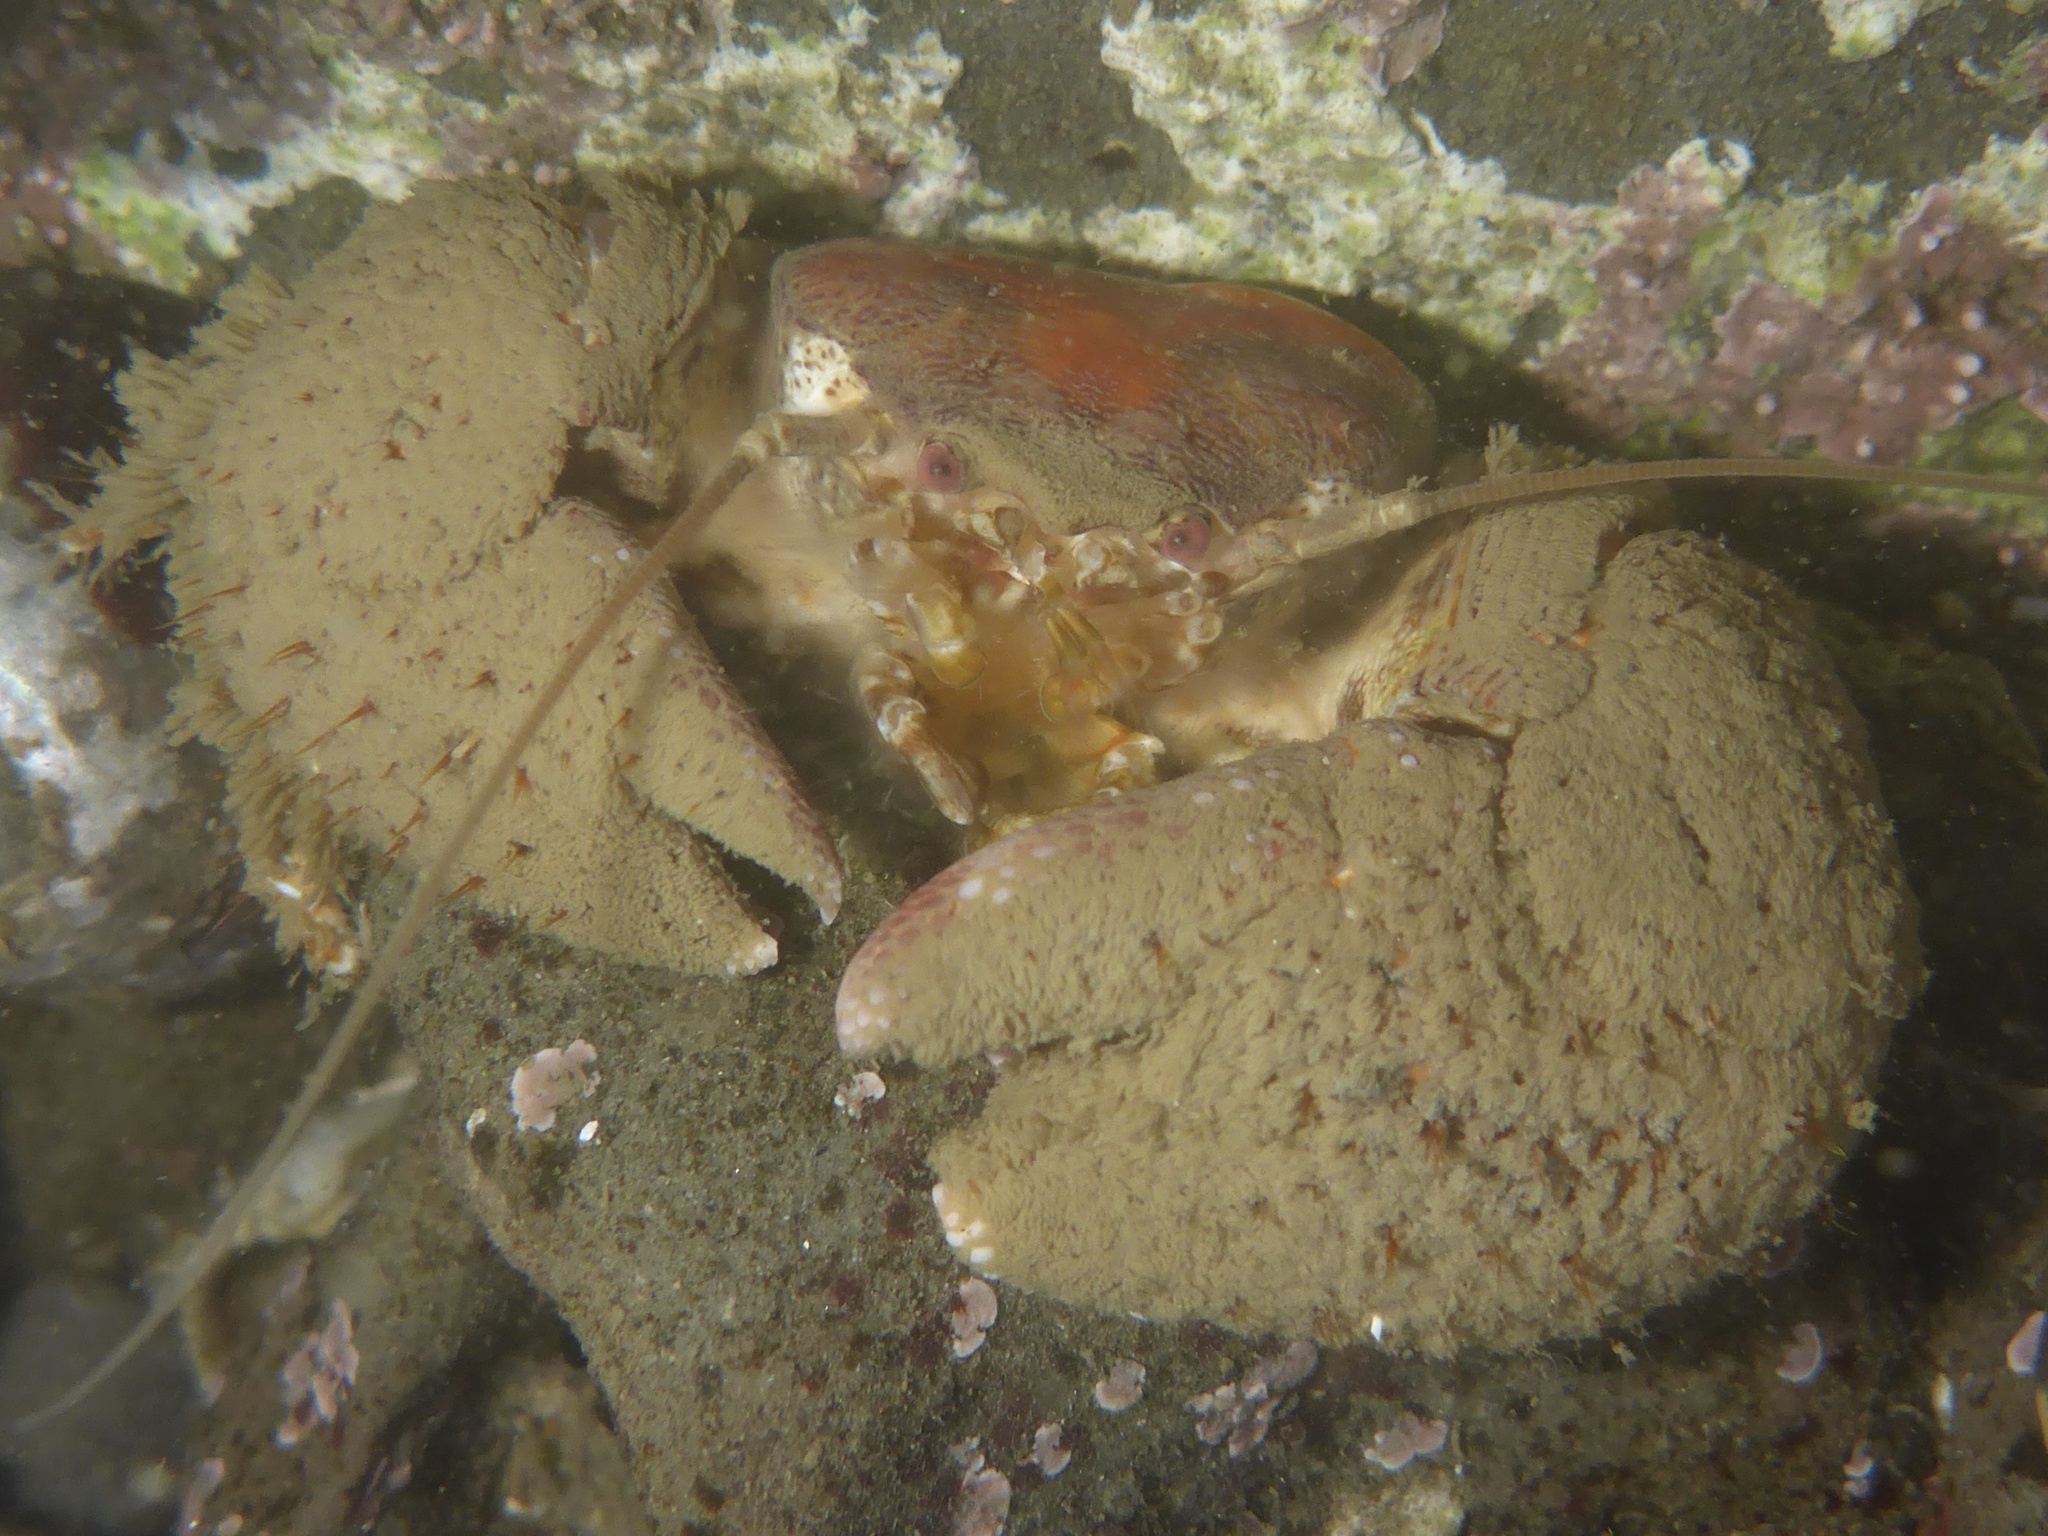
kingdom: Animalia
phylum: Arthropoda
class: Malacostraca
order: Decapoda
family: Porcellanidae
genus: Pachycheles
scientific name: Pachycheles pubescens
